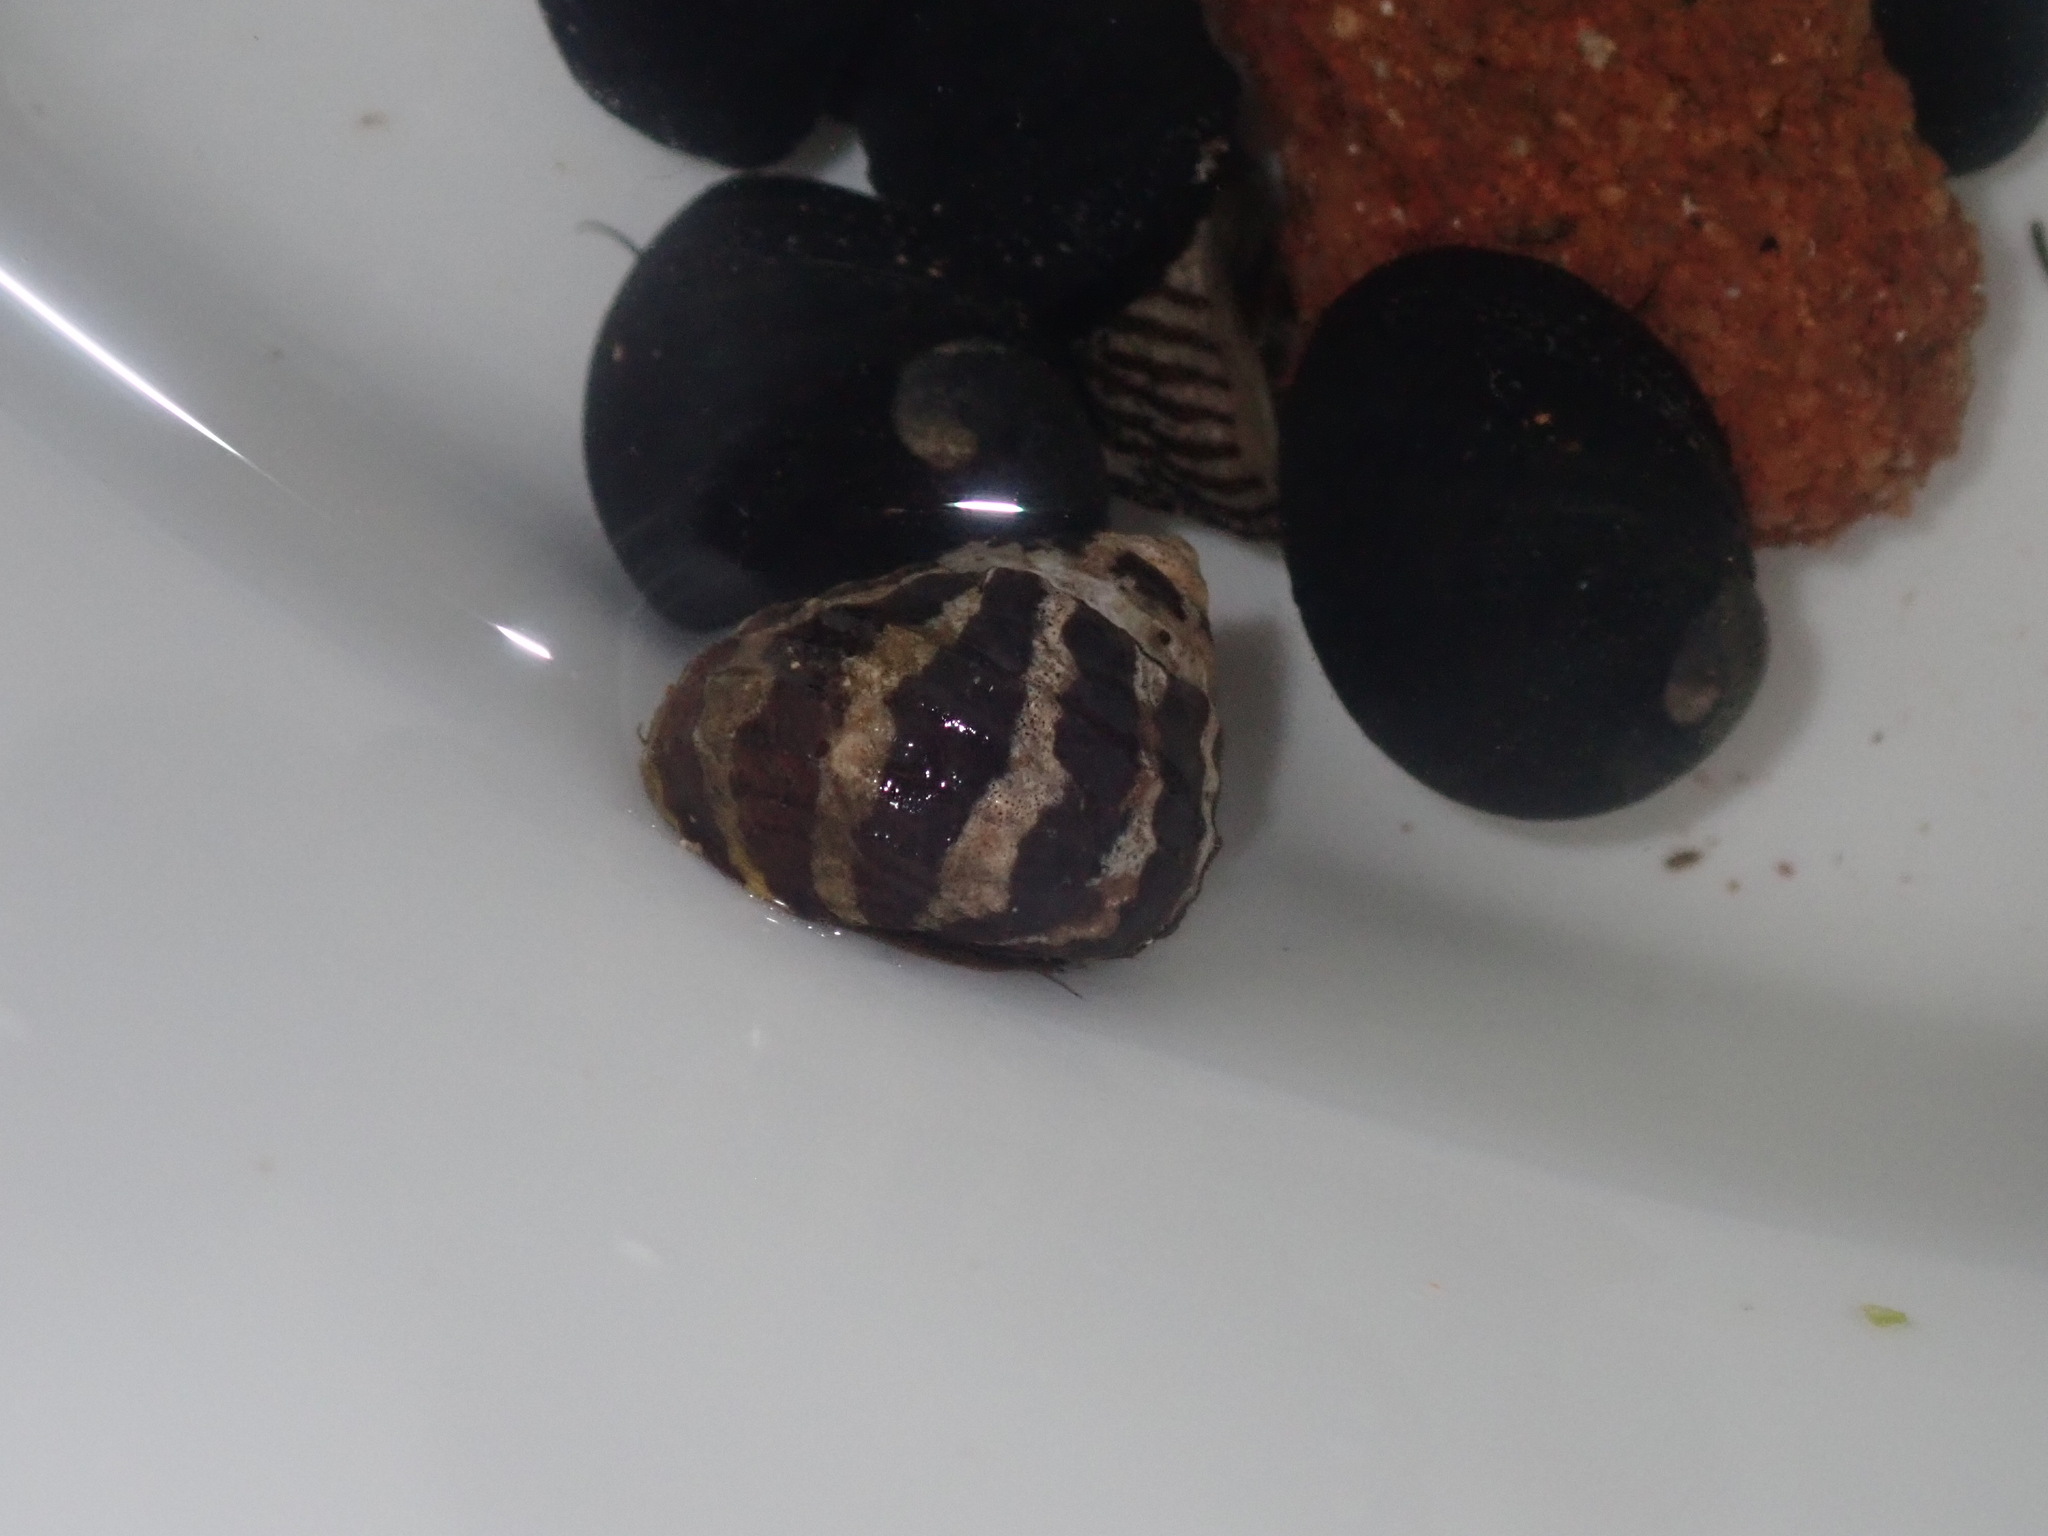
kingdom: Animalia
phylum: Mollusca
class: Gastropoda
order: Trochida
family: Trochidae
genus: Austrocochlea
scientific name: Austrocochlea porcata
